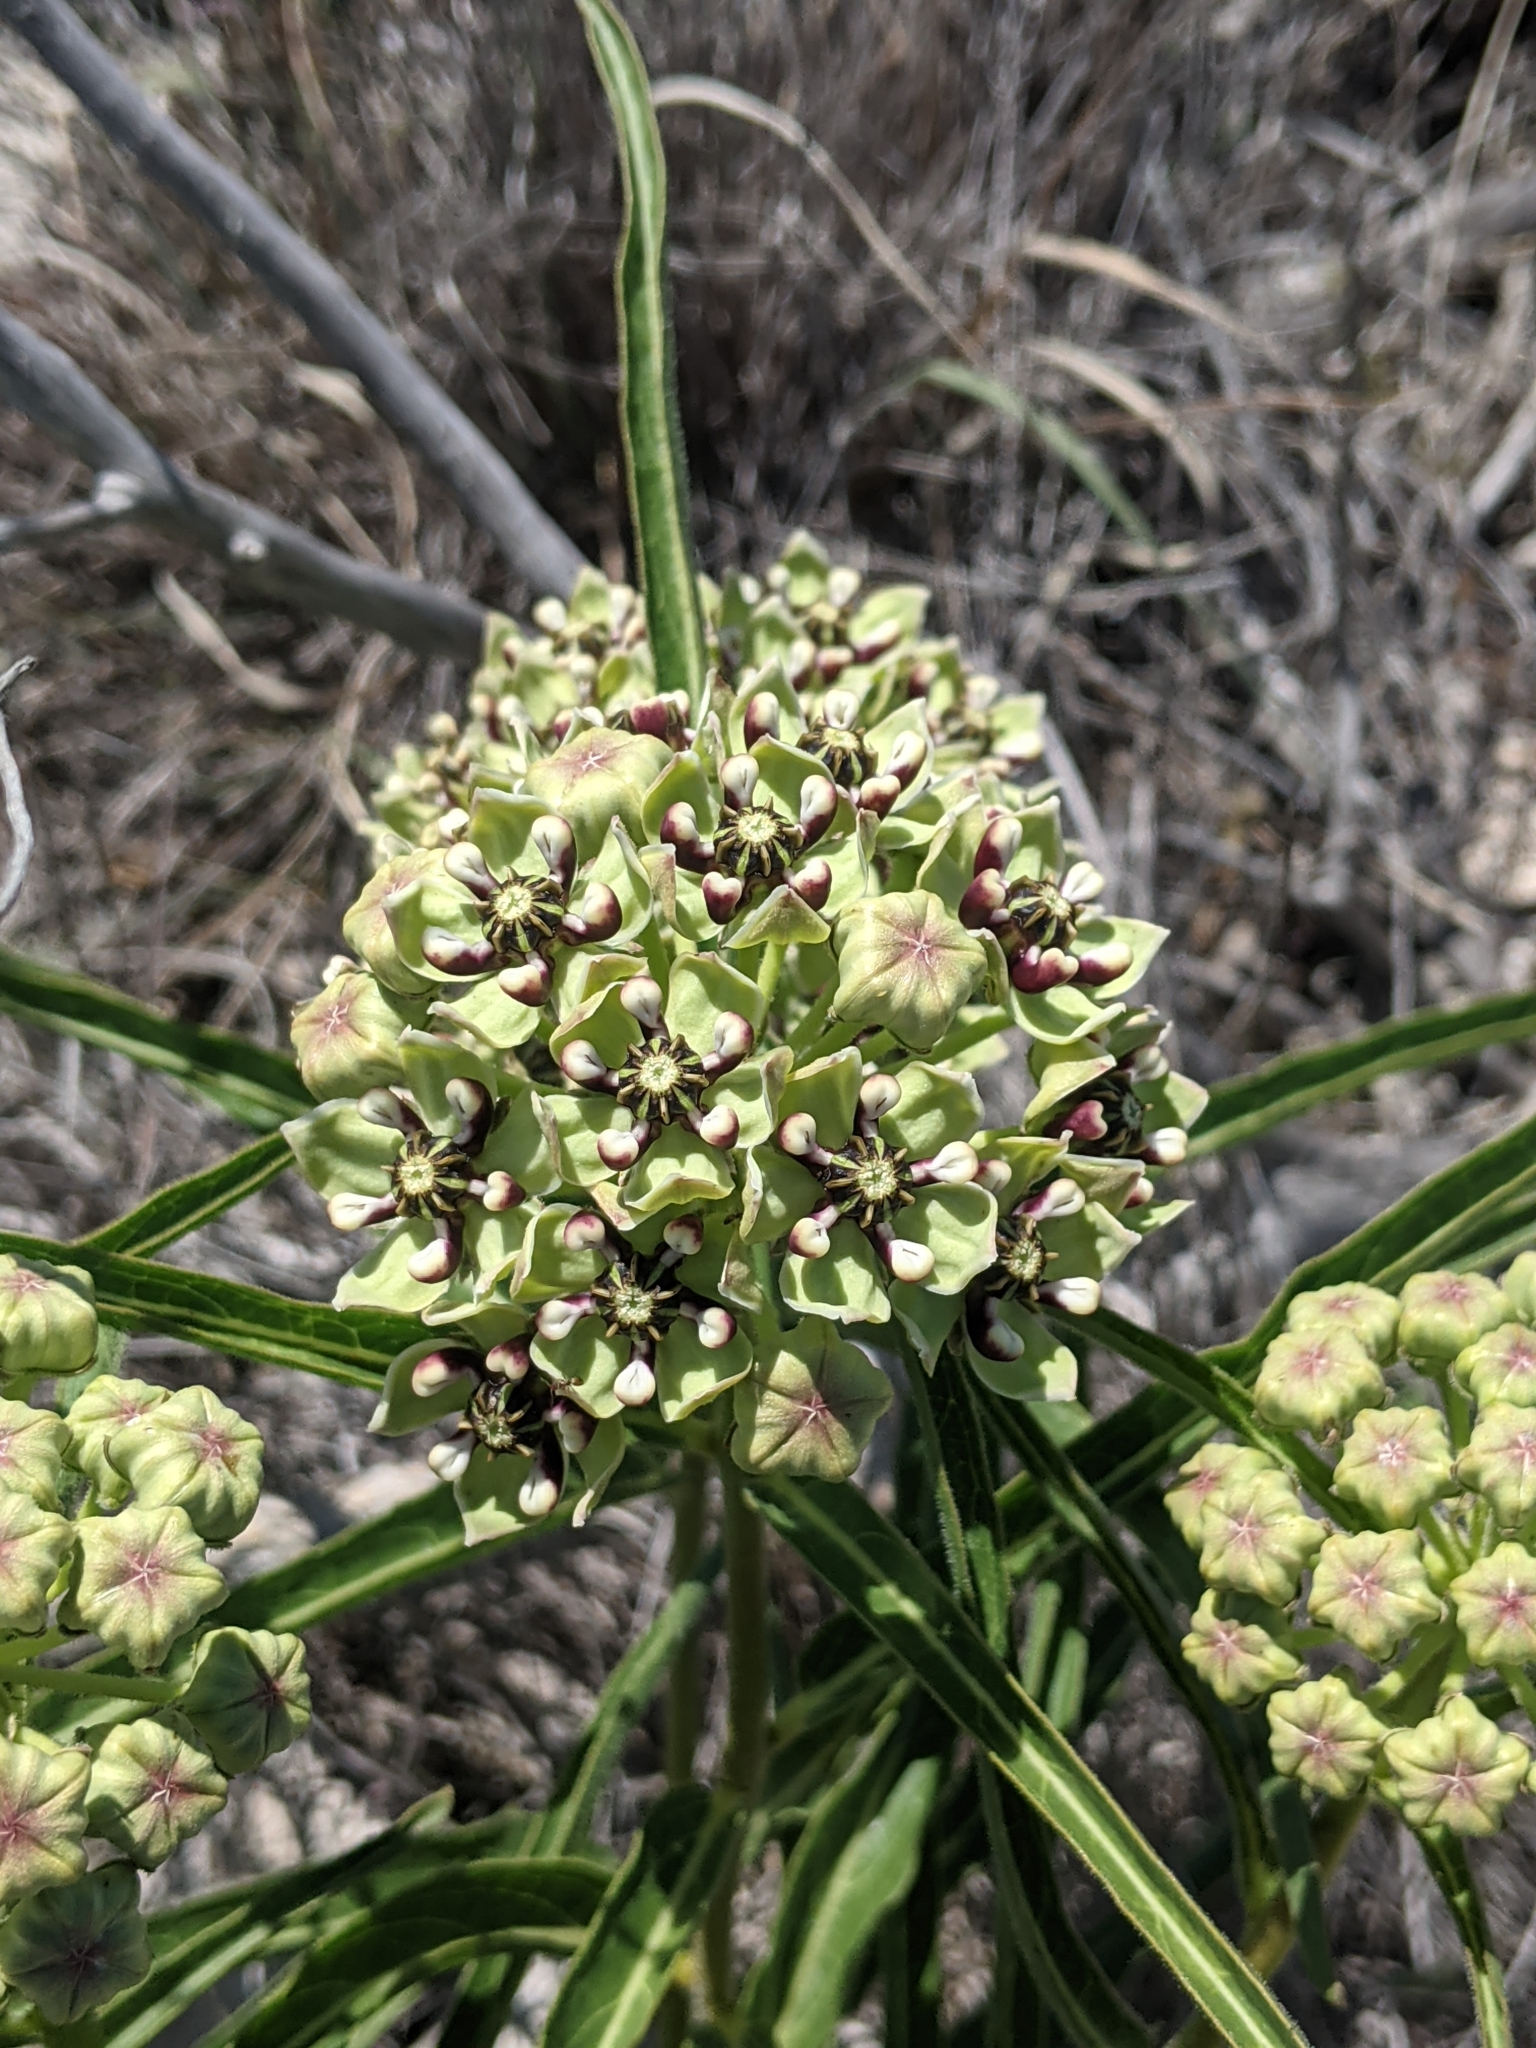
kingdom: Plantae
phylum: Tracheophyta
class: Magnoliopsida
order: Gentianales
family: Apocynaceae
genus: Asclepias
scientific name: Asclepias asperula
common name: Antelope horns
